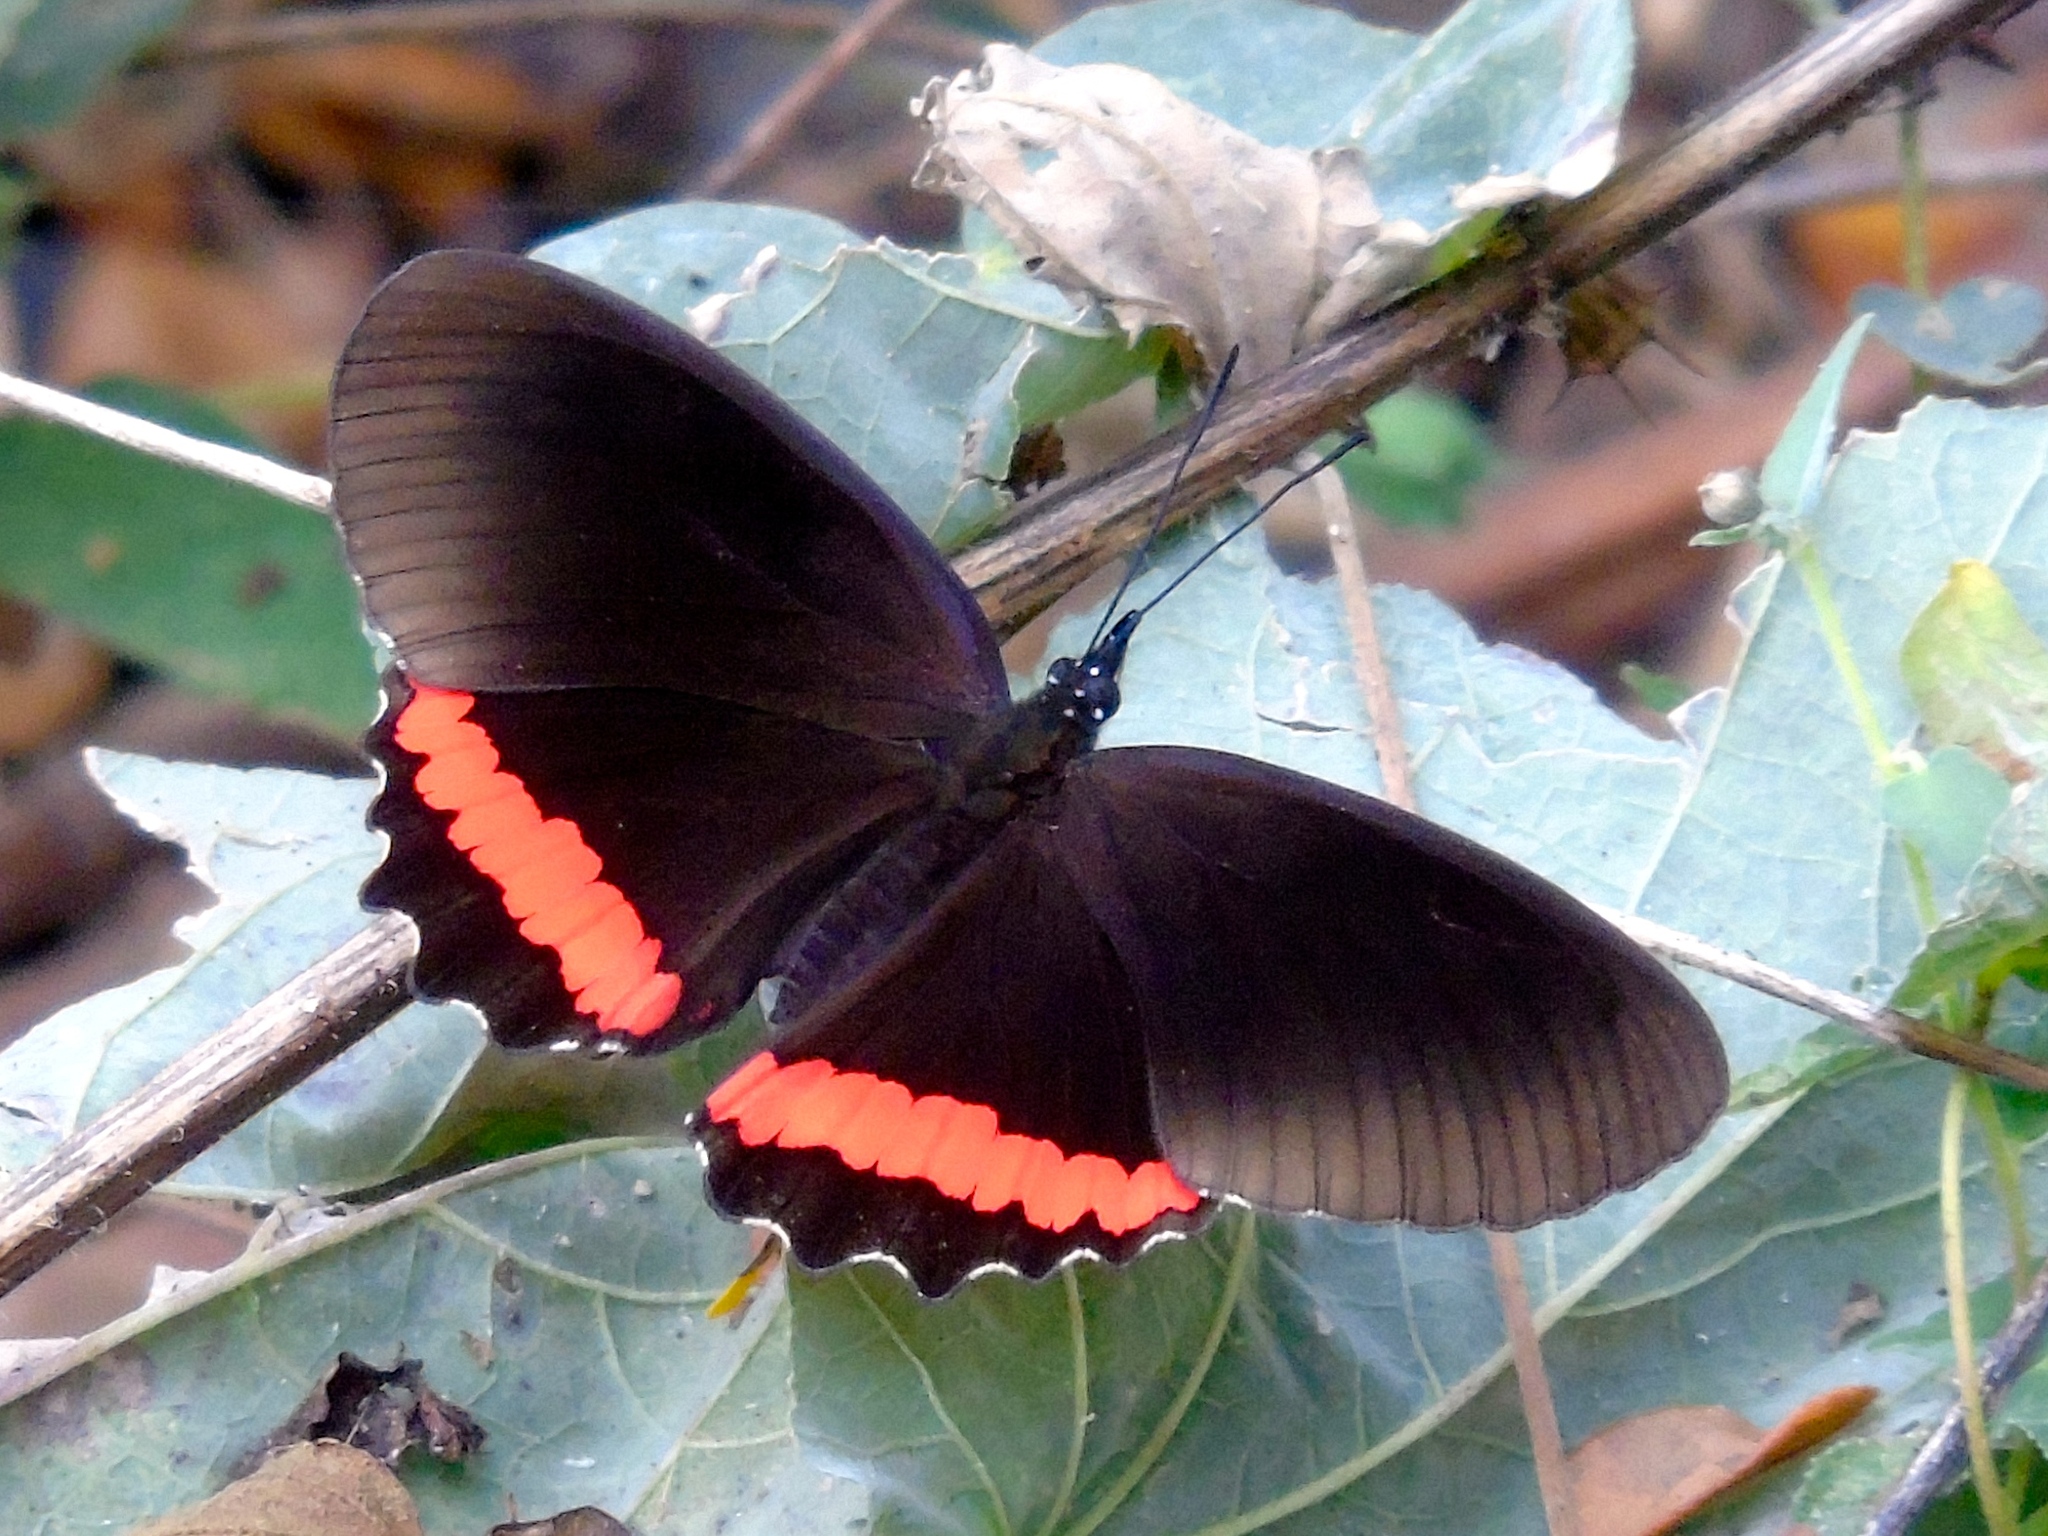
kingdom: Animalia
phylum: Arthropoda
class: Insecta
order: Lepidoptera
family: Nymphalidae
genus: Biblis
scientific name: Biblis aganisa
